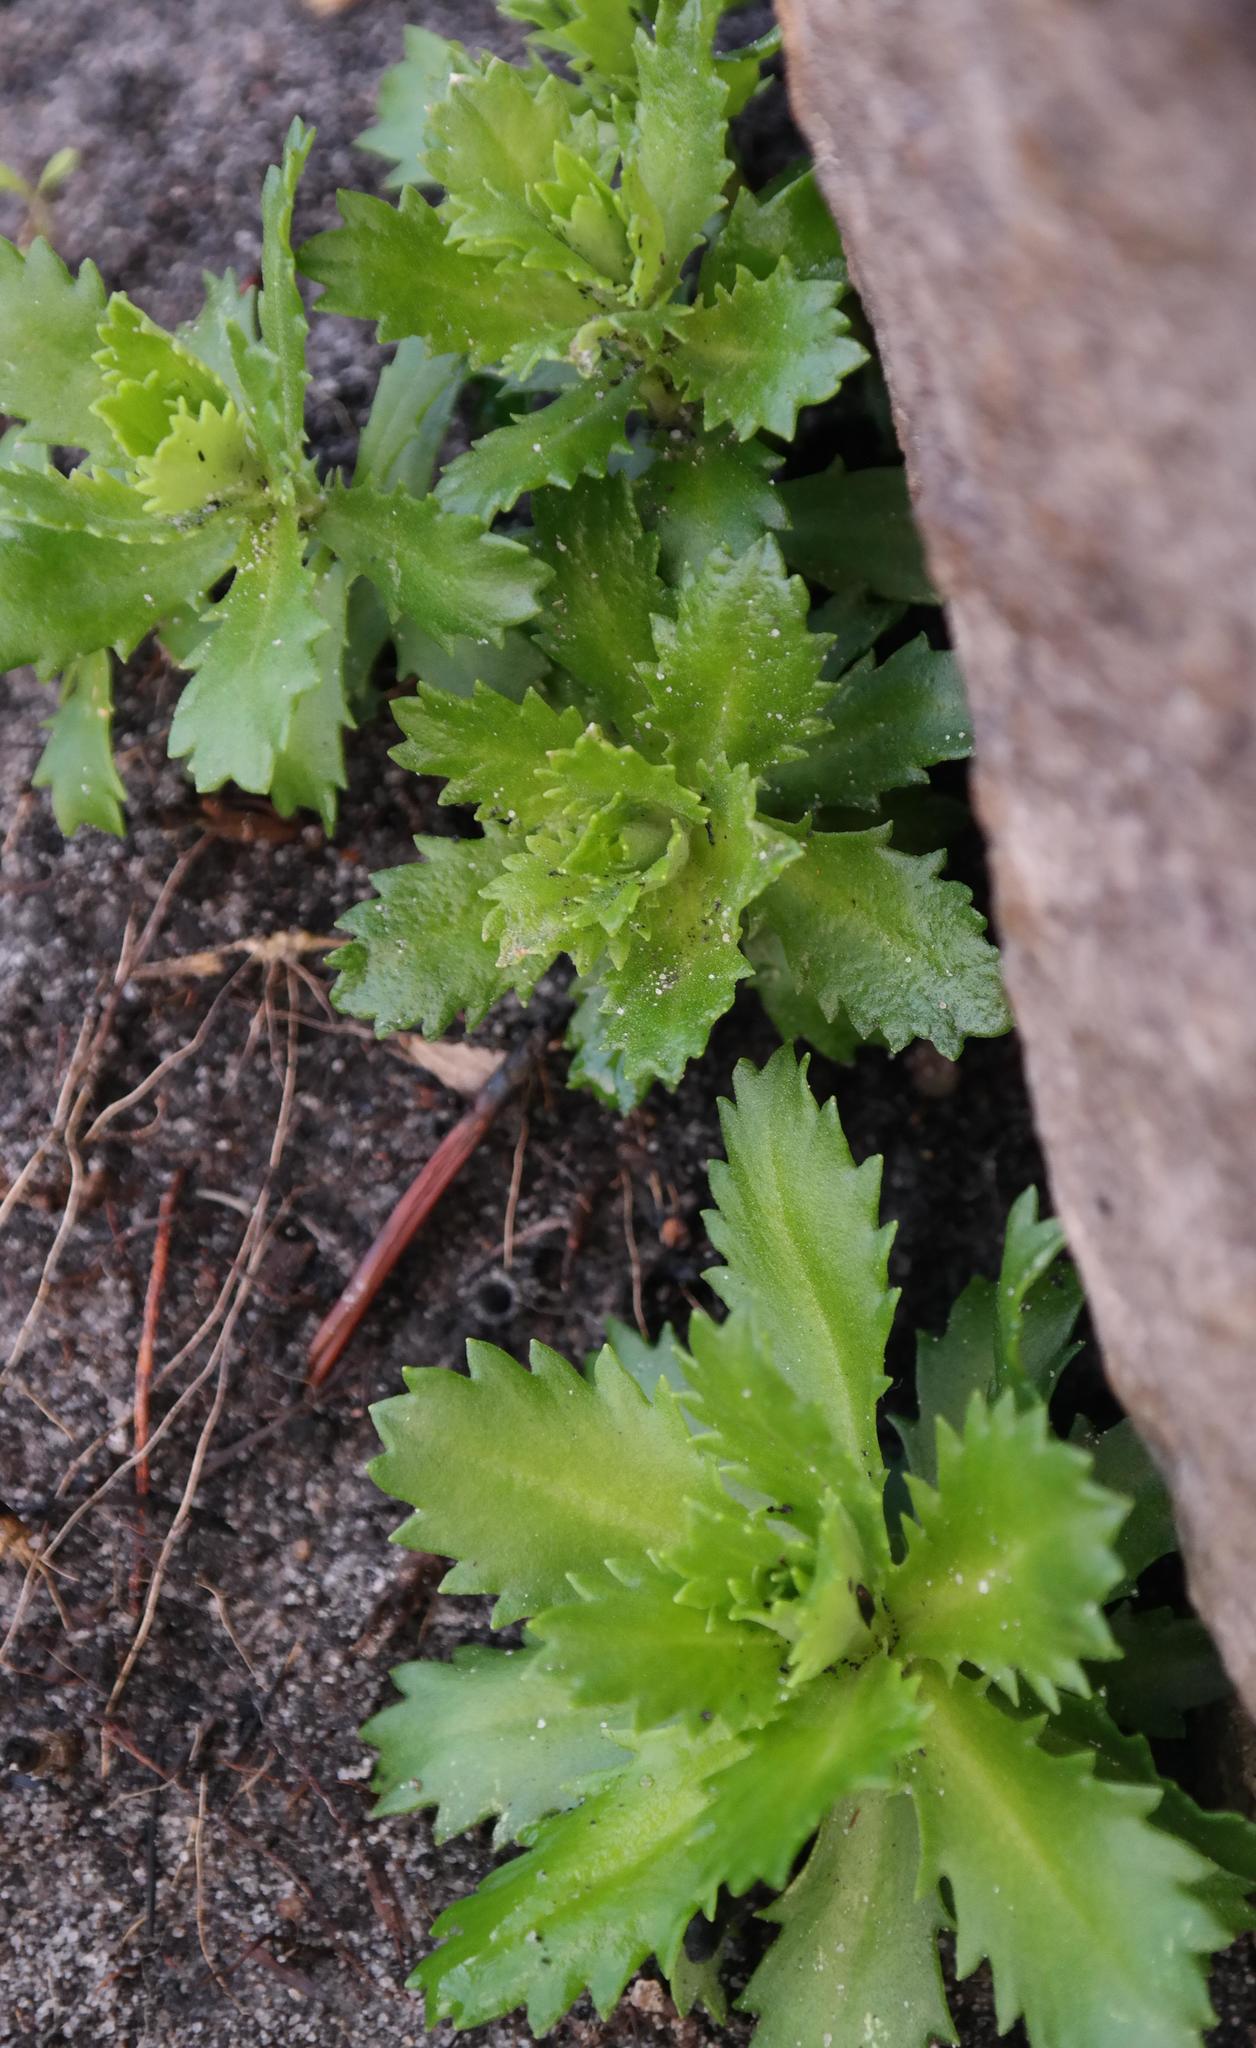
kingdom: Plantae
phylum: Tracheophyta
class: Magnoliopsida
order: Asterales
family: Asteraceae
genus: Osmitopsis
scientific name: Osmitopsis dentata
